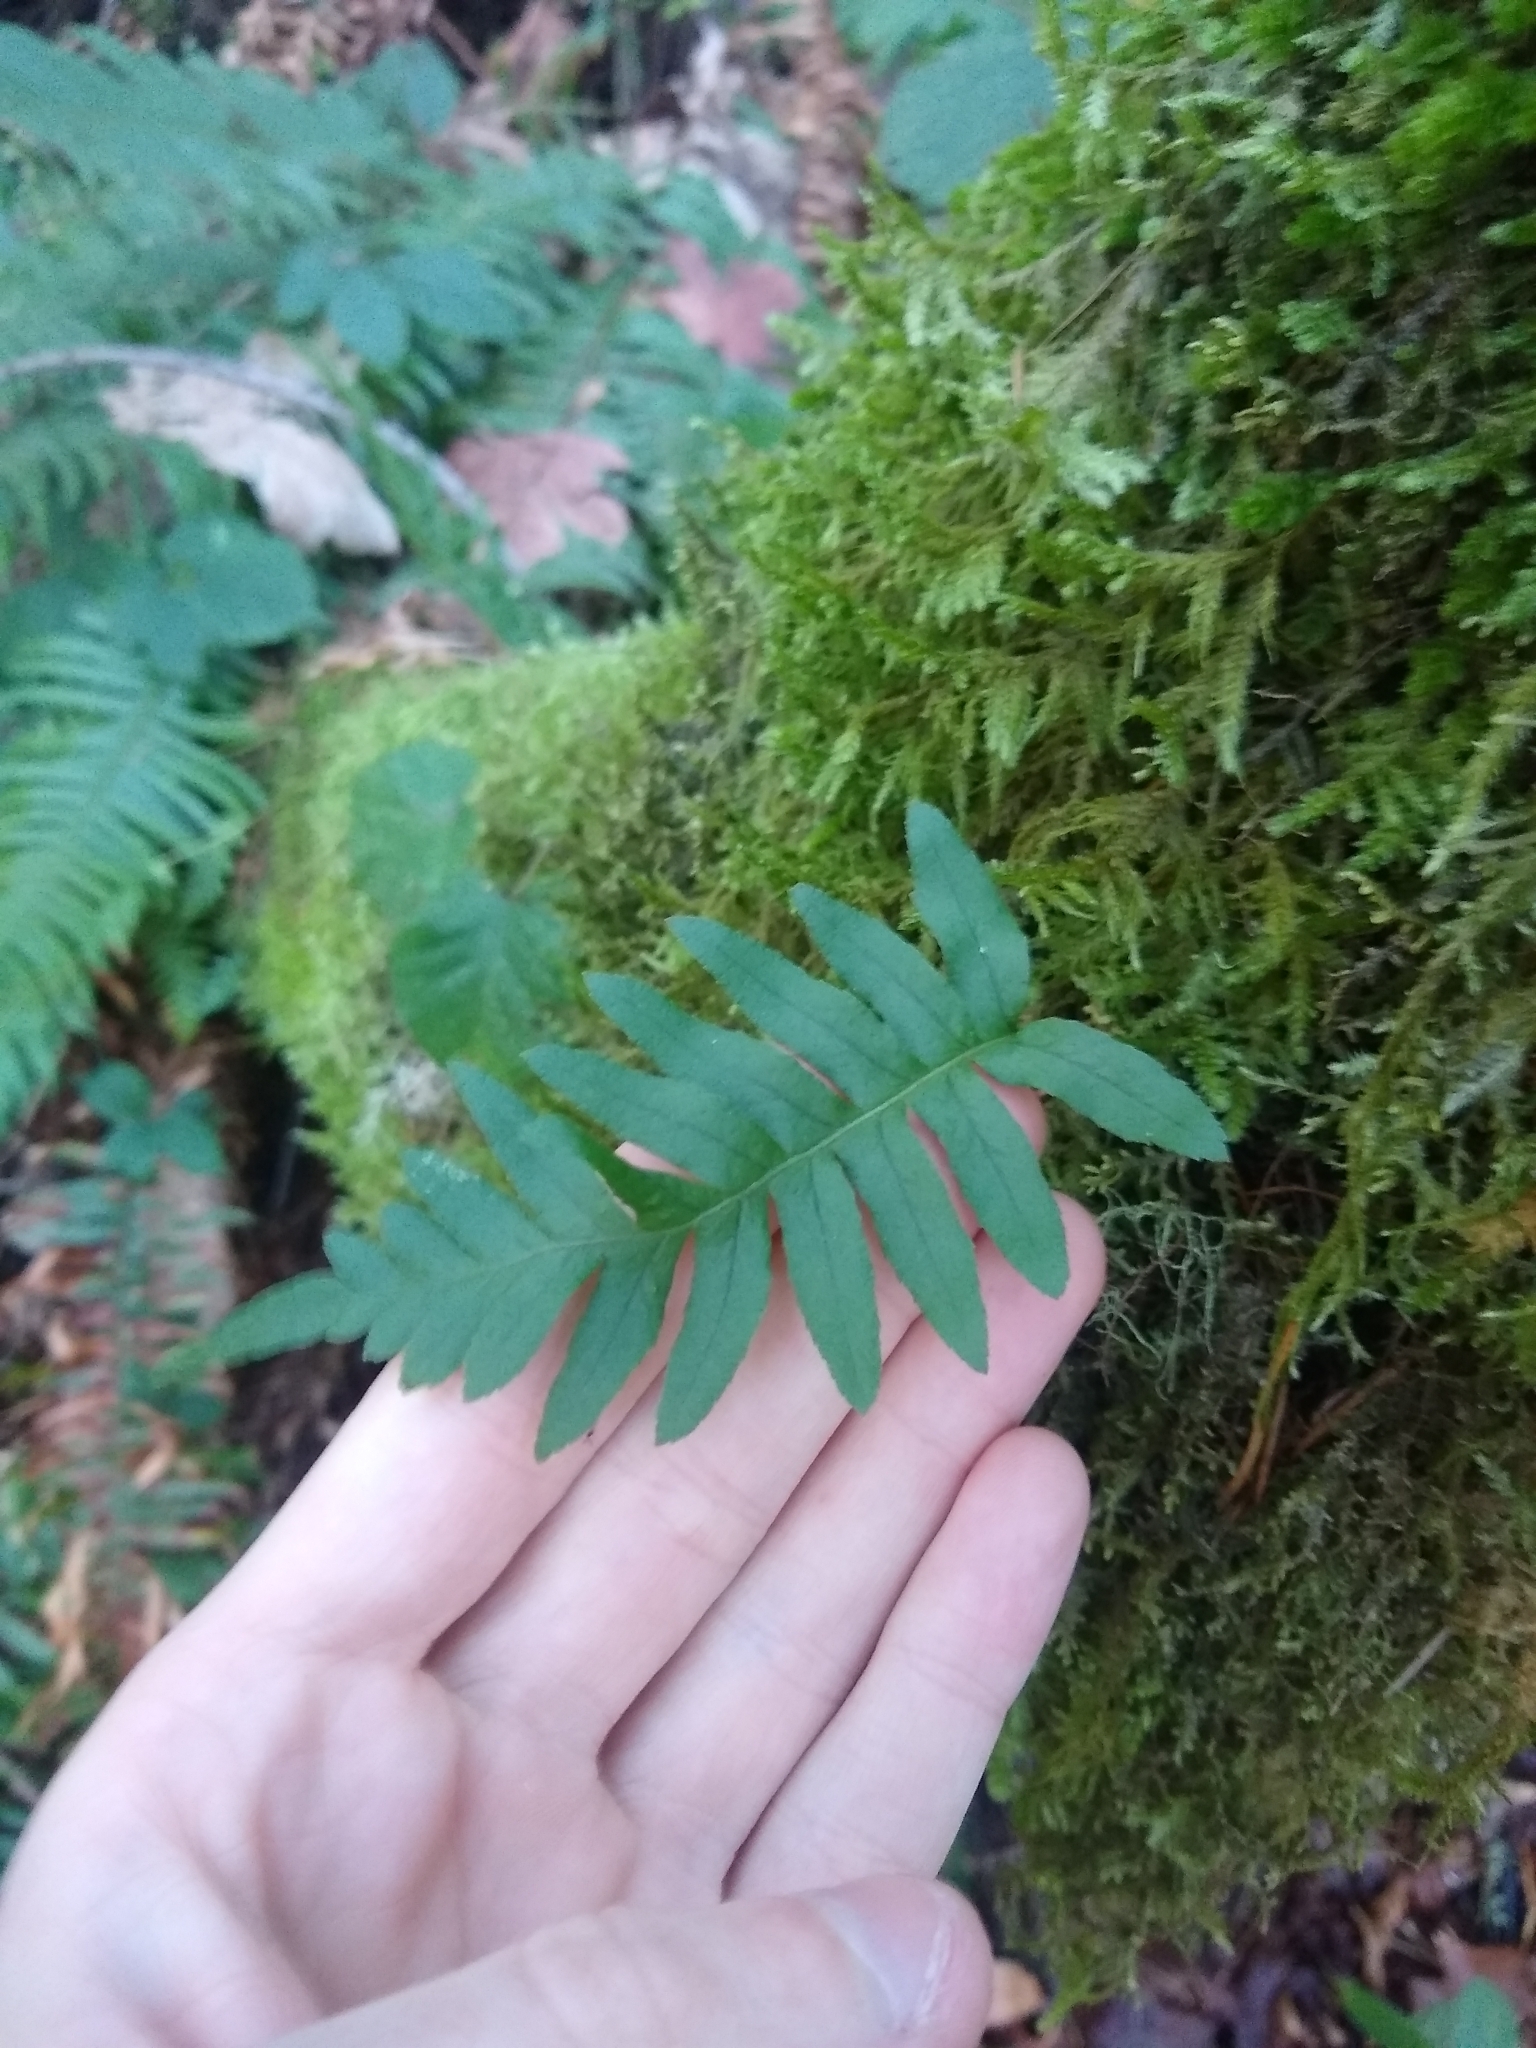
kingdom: Plantae
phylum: Tracheophyta
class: Polypodiopsida
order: Polypodiales
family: Polypodiaceae
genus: Polypodium
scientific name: Polypodium glycyrrhiza
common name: Licorice fern
